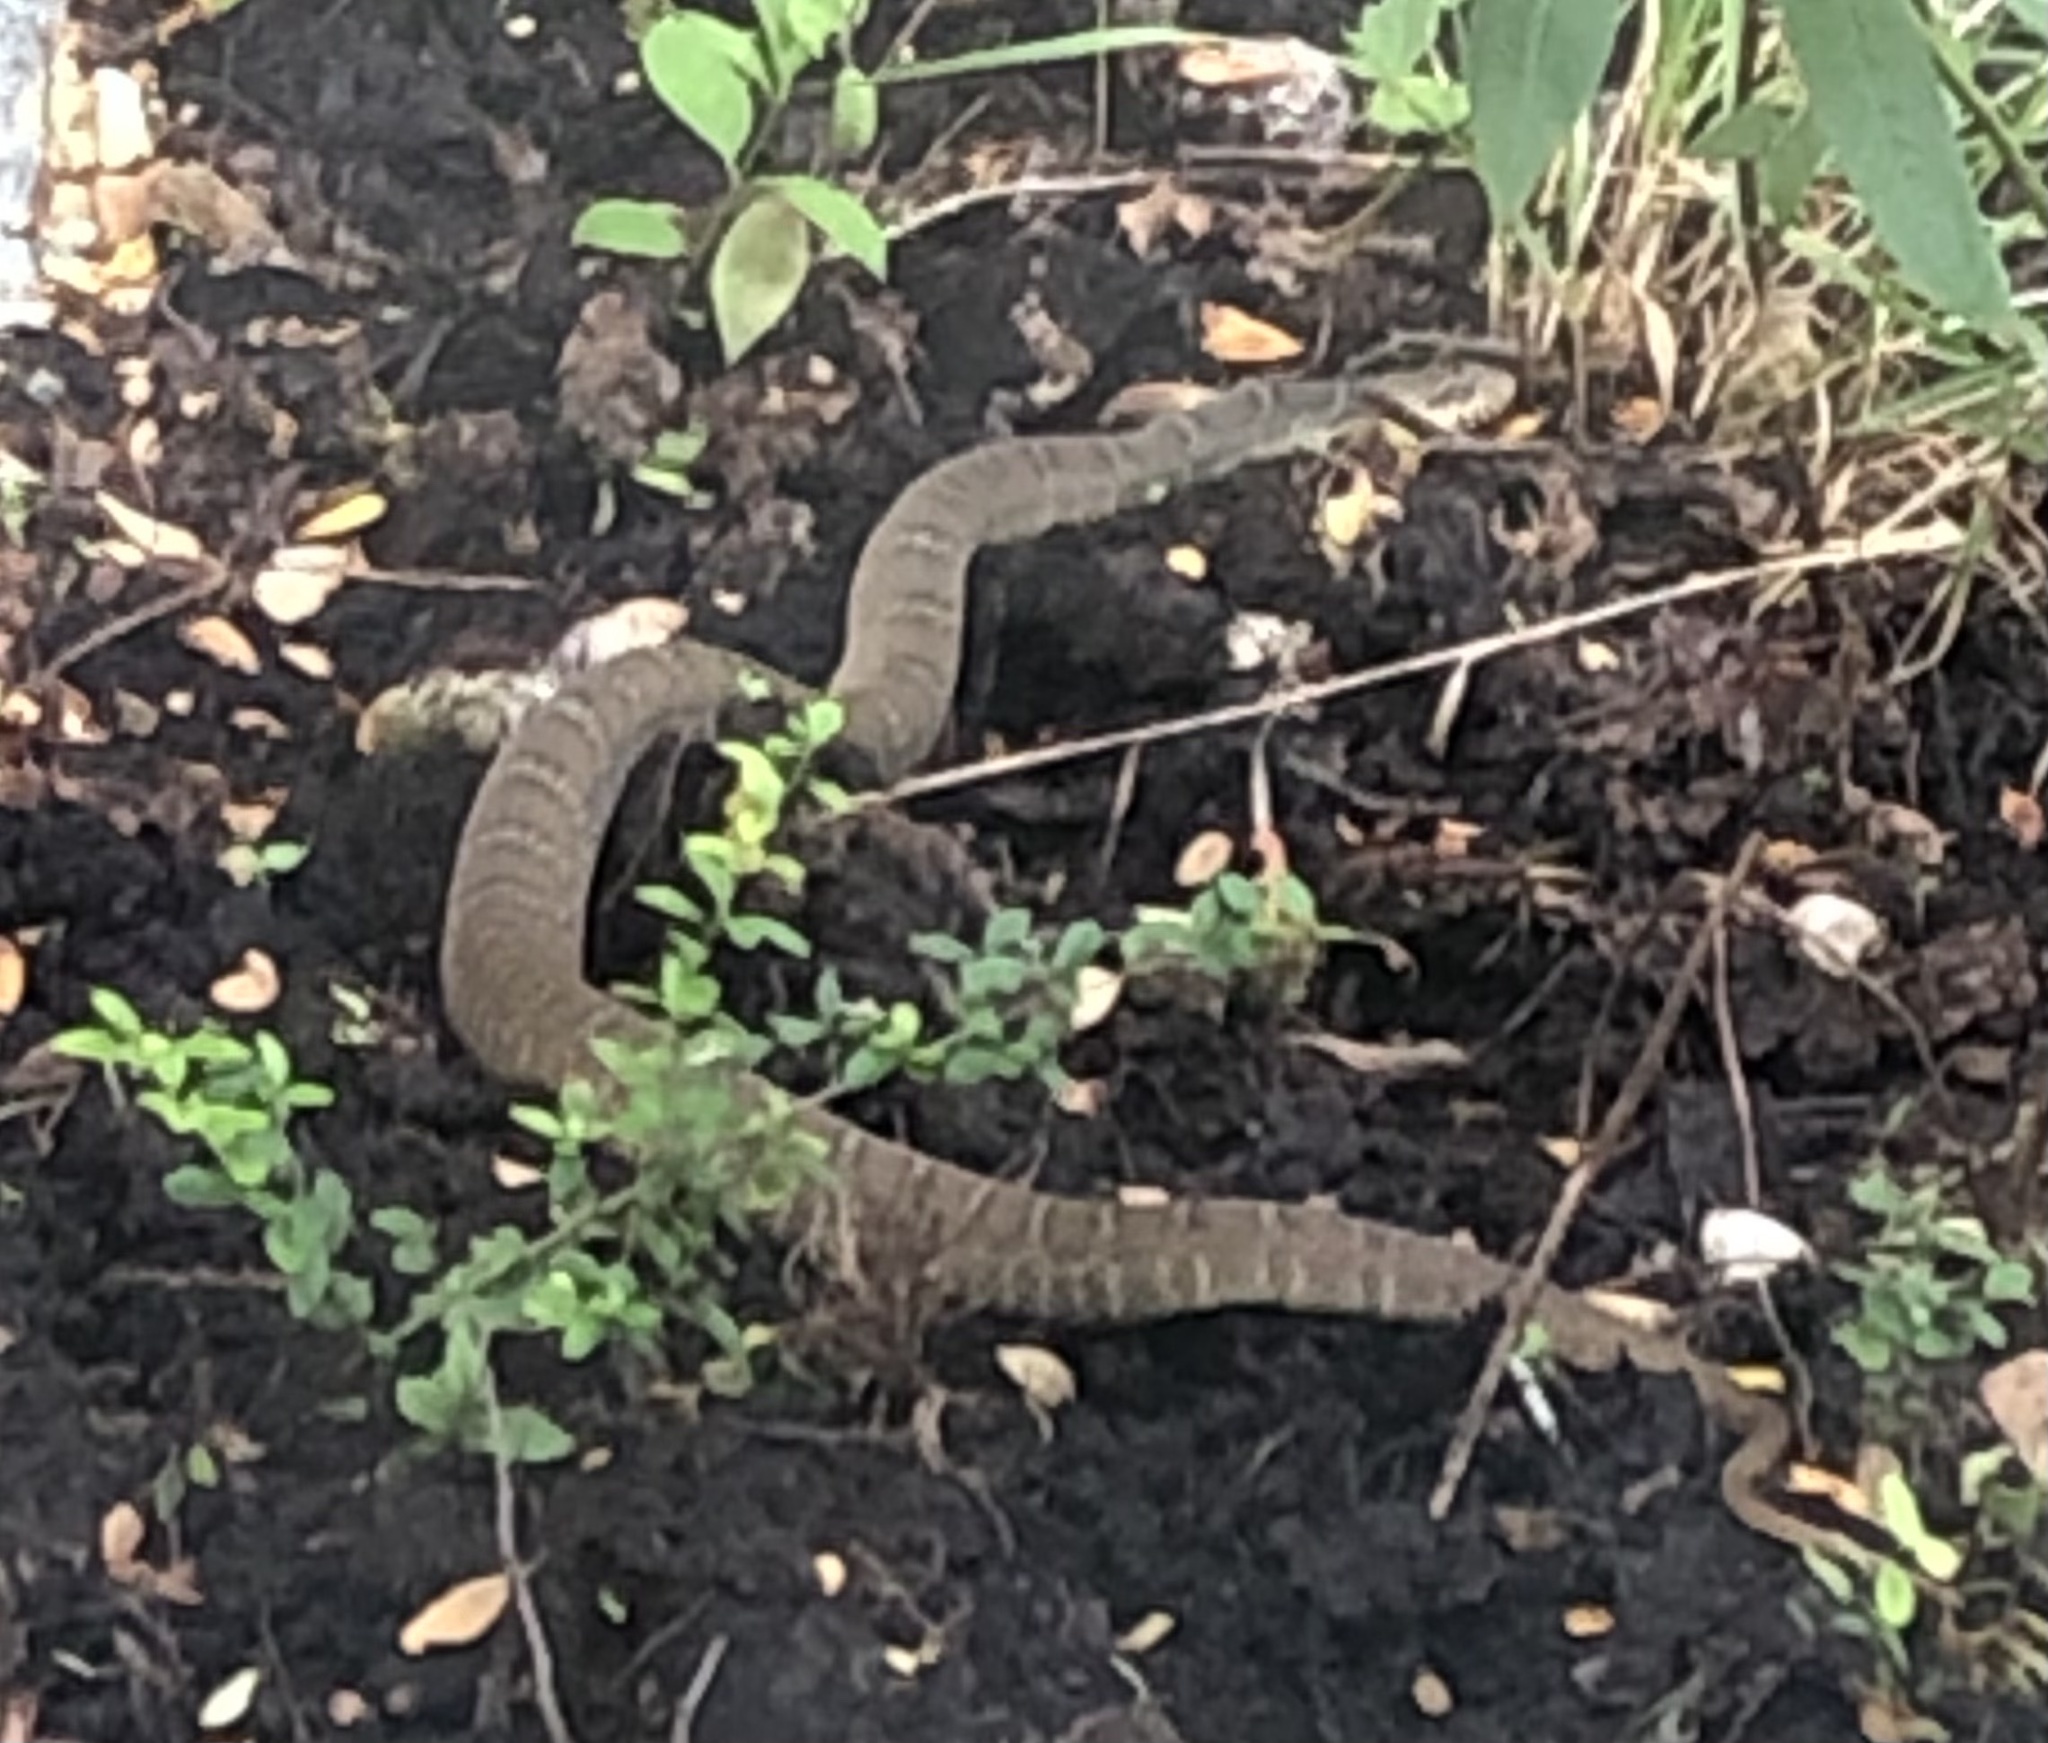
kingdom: Animalia
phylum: Chordata
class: Squamata
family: Colubridae
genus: Nerodia
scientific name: Nerodia erythrogaster
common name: Plainbelly water snake
